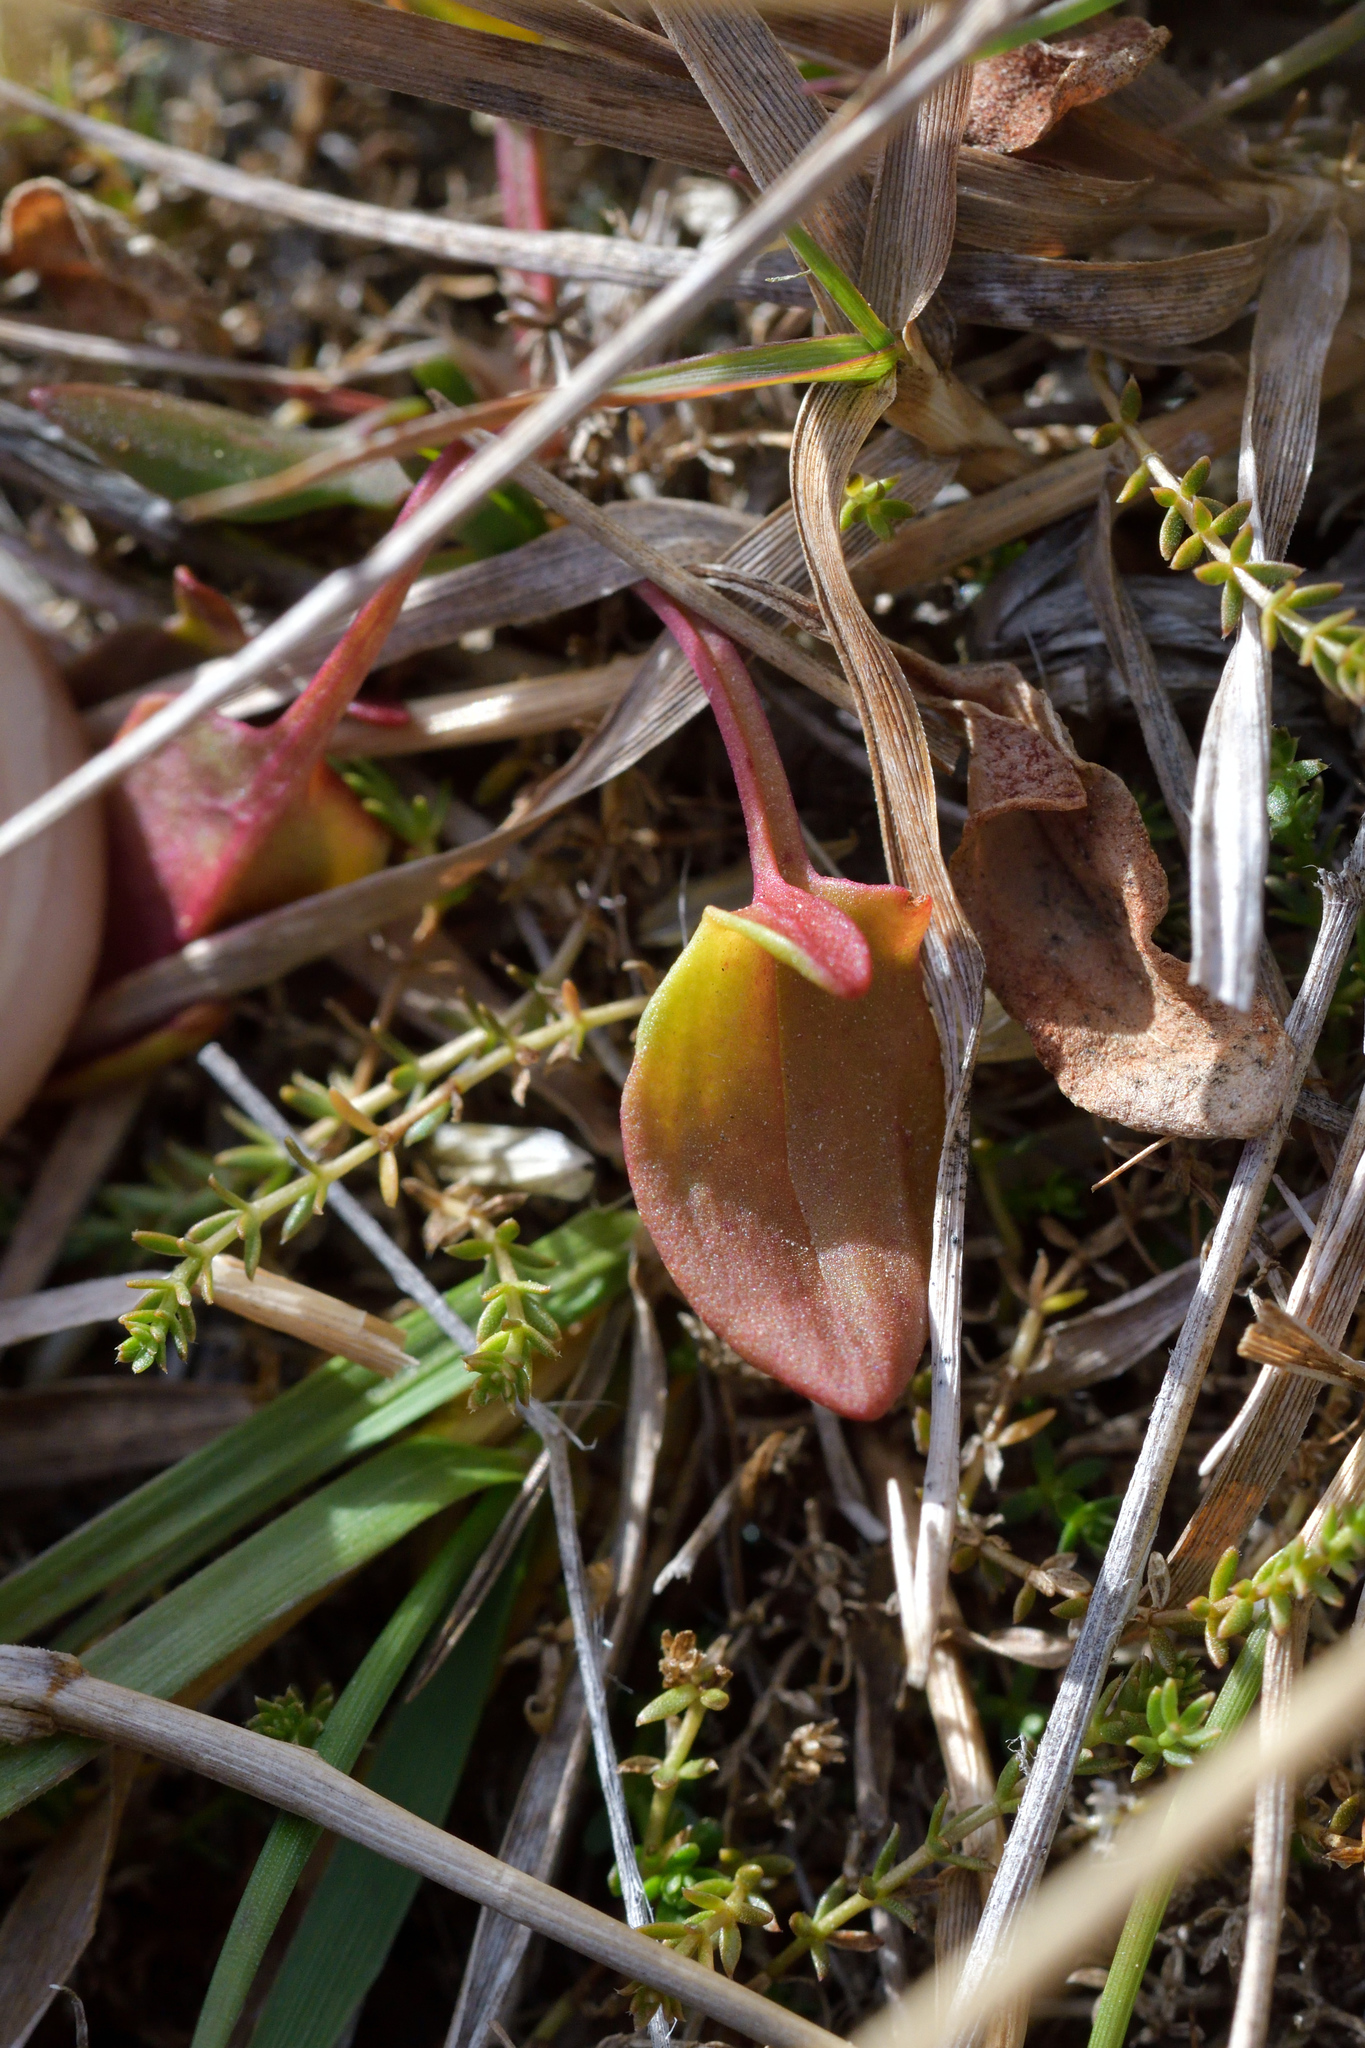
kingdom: Plantae
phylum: Tracheophyta
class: Magnoliopsida
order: Caryophyllales
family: Polygonaceae
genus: Rumex
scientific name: Rumex acetosella
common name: Common sheep sorrel
